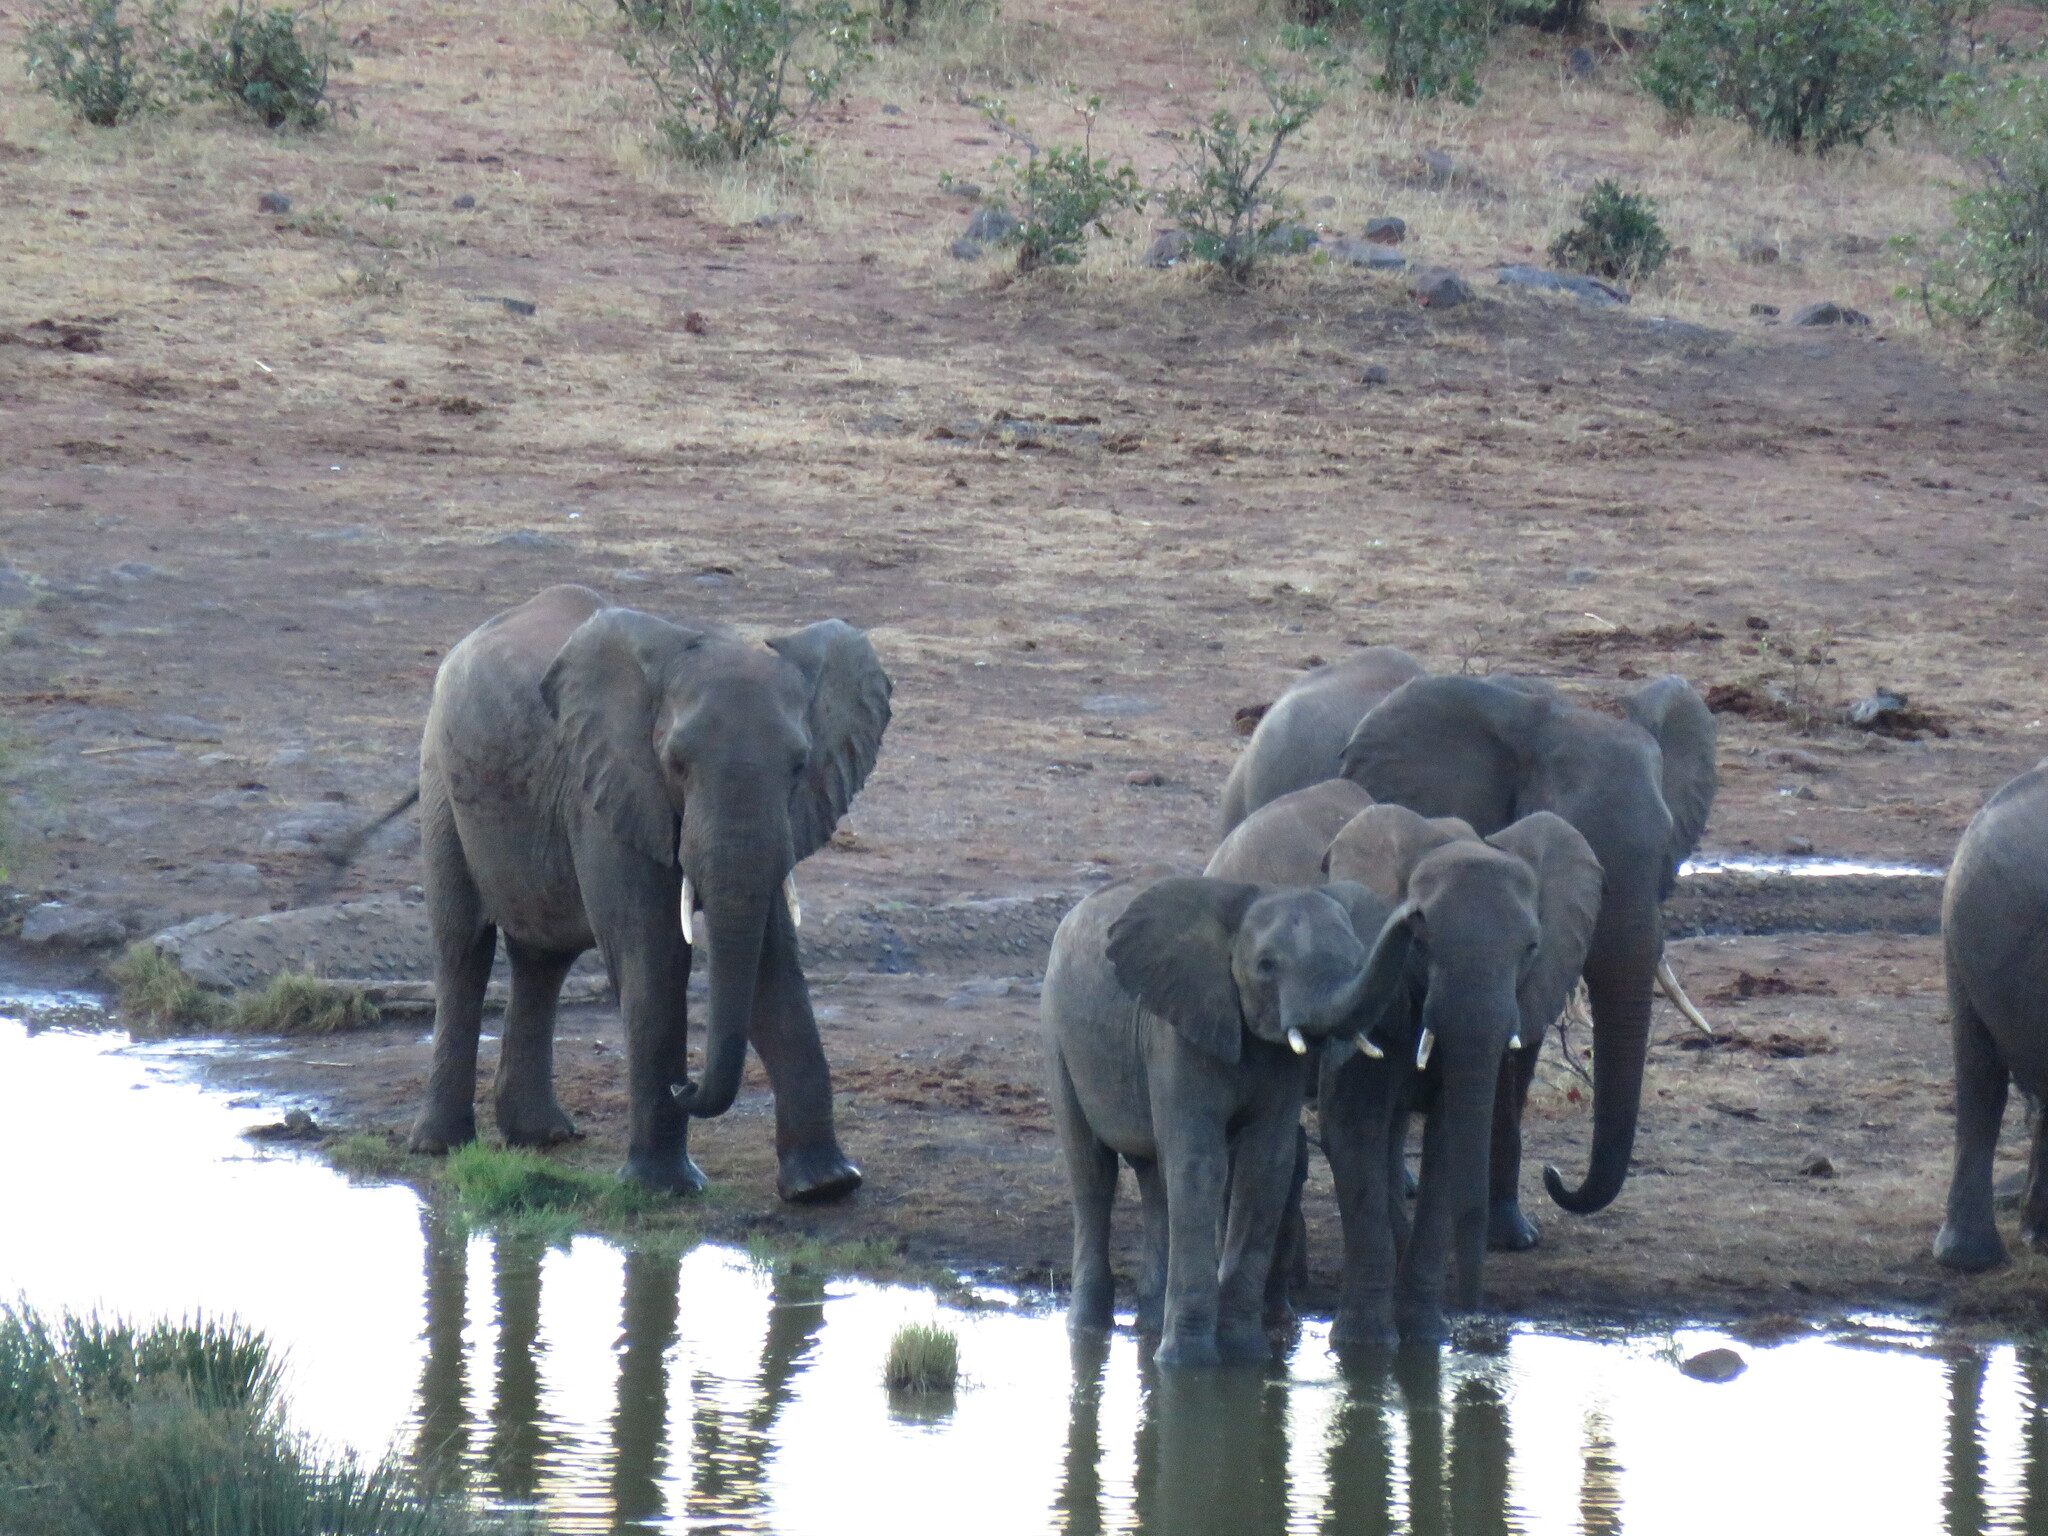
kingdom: Animalia
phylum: Chordata
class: Mammalia
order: Proboscidea
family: Elephantidae
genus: Loxodonta
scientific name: Loxodonta africana
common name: African elephant
